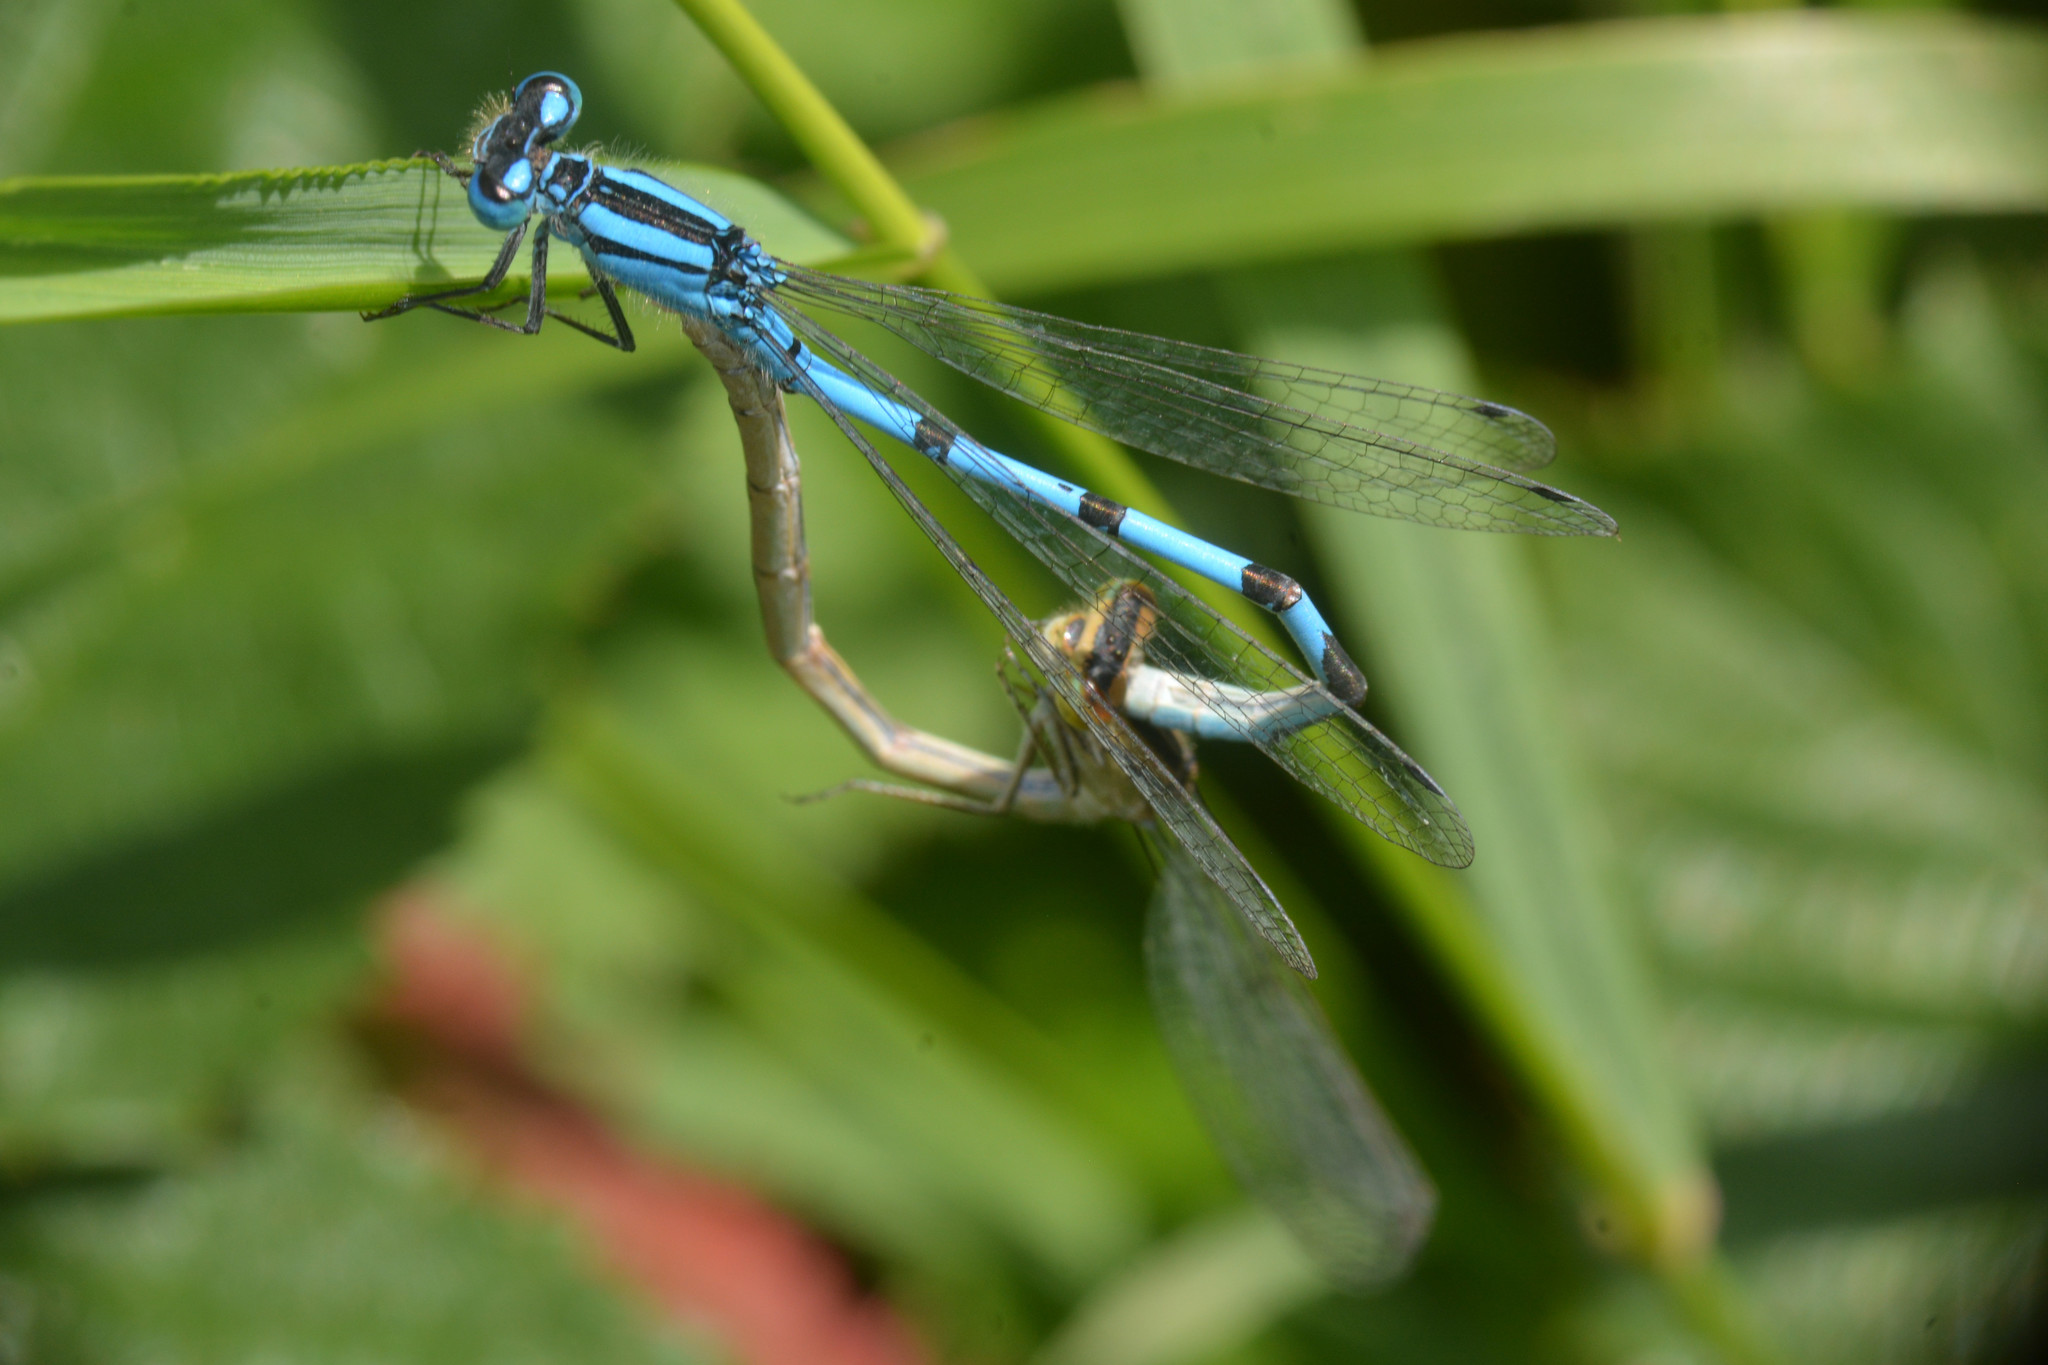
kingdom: Animalia
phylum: Arthropoda
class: Insecta
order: Odonata
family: Coenagrionidae
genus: Enallagma
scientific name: Enallagma cyathigerum
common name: Common blue damselfly
